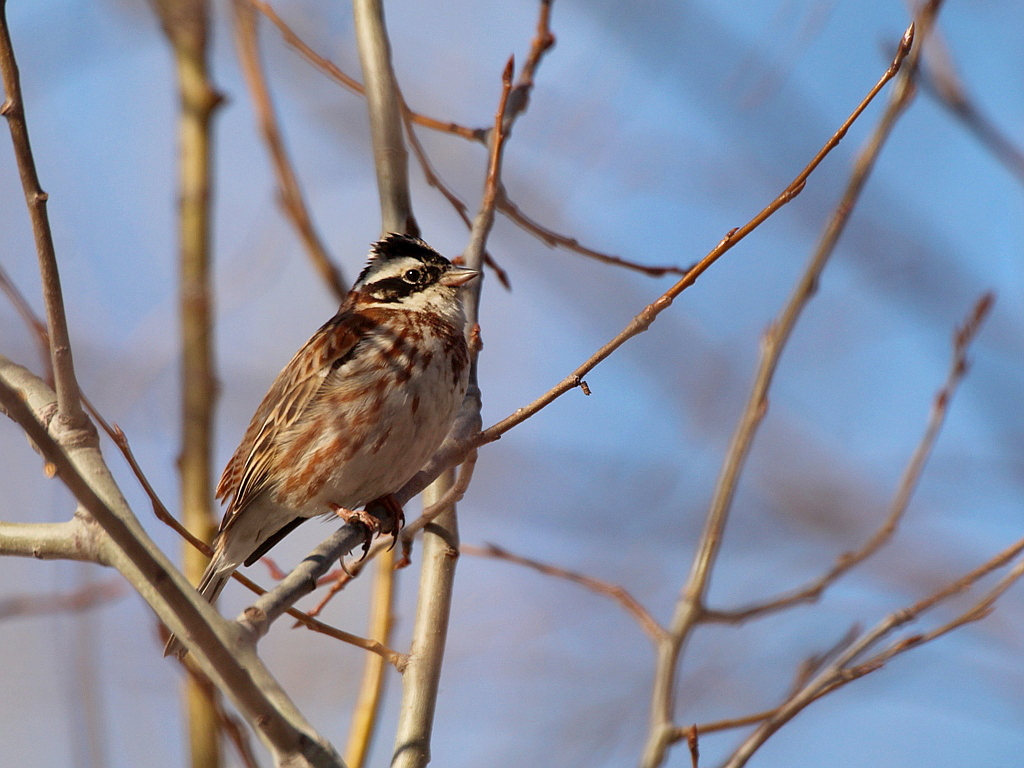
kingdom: Animalia
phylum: Chordata
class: Aves
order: Passeriformes
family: Emberizidae
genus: Emberiza
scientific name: Emberiza rustica
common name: Rustic bunting
